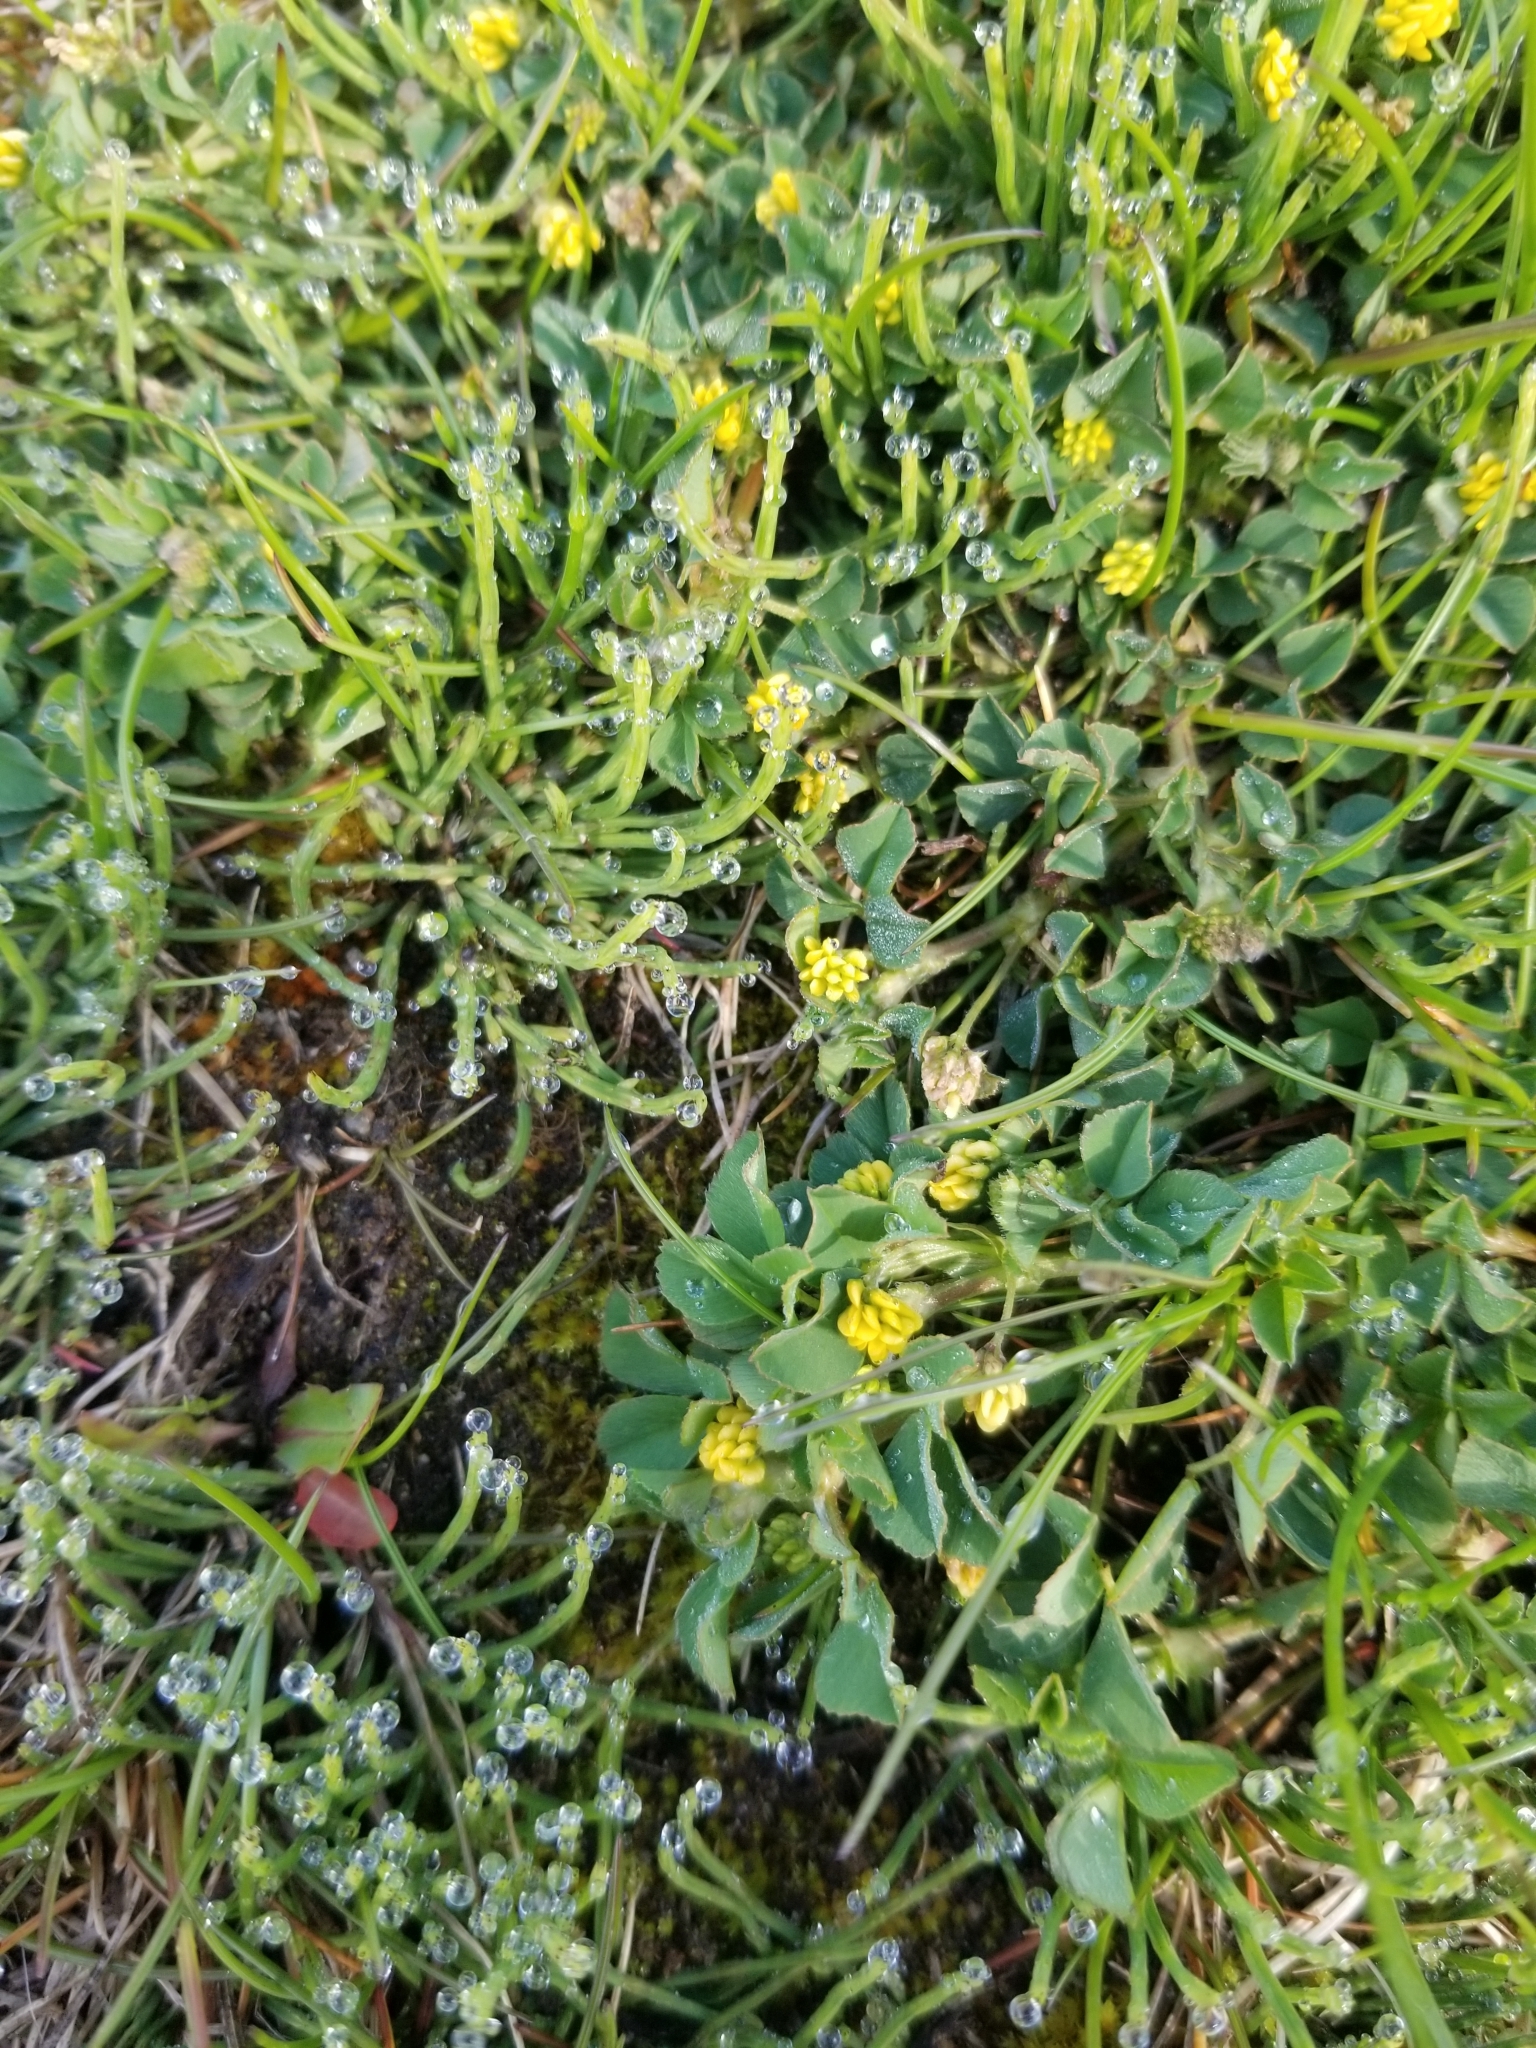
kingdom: Plantae
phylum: Tracheophyta
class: Magnoliopsida
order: Fabales
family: Fabaceae
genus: Medicago
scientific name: Medicago lupulina
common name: Black medick
